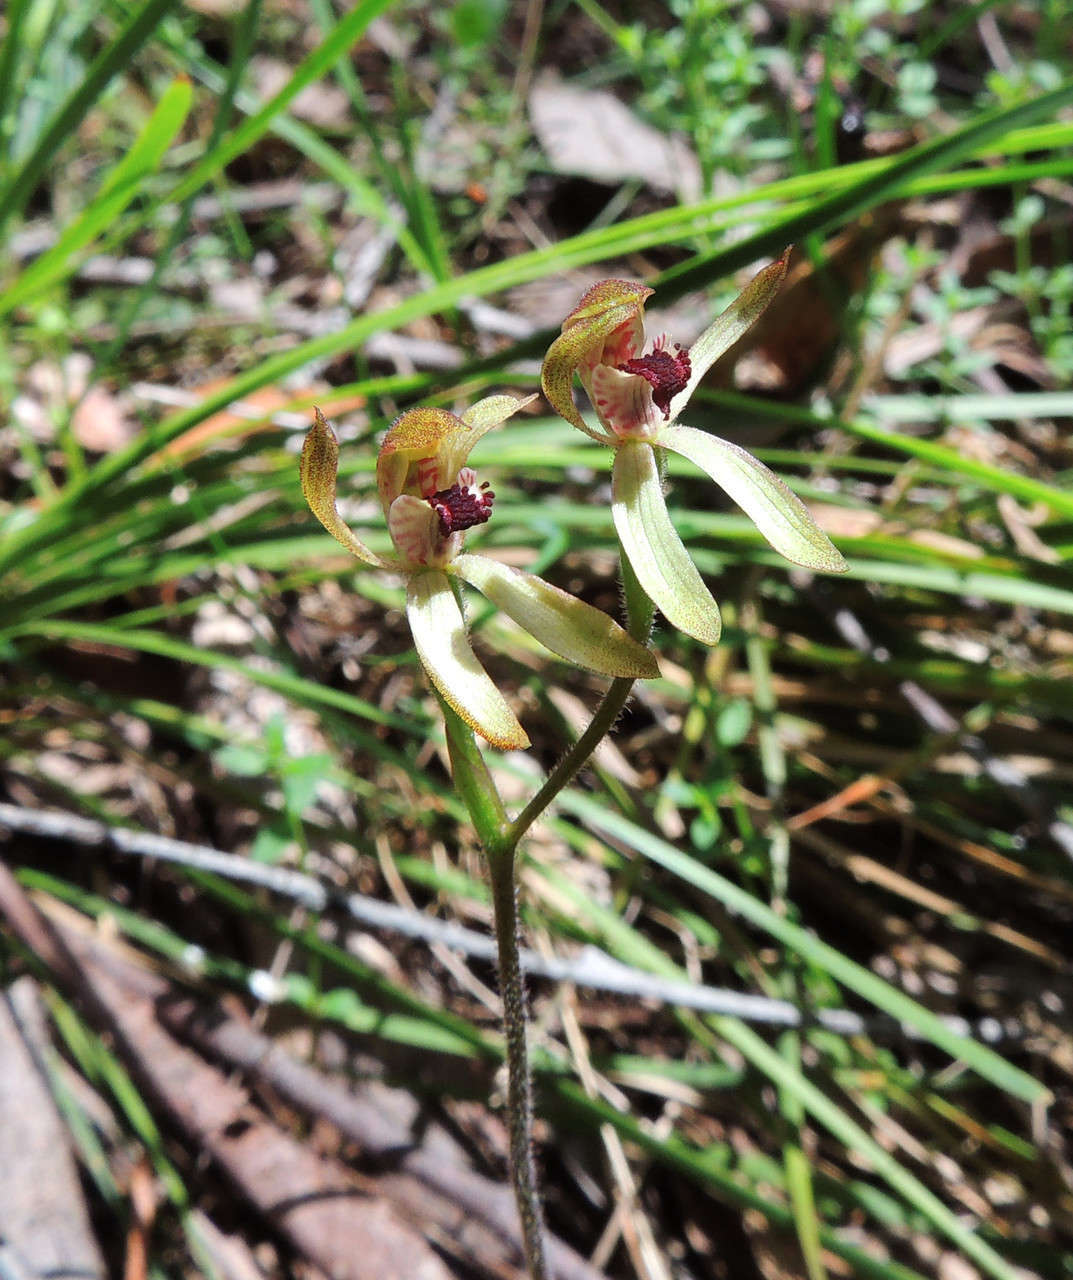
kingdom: Plantae
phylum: Tracheophyta
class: Liliopsida
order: Asparagales
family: Orchidaceae
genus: Caladenia
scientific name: Caladenia transitoria
